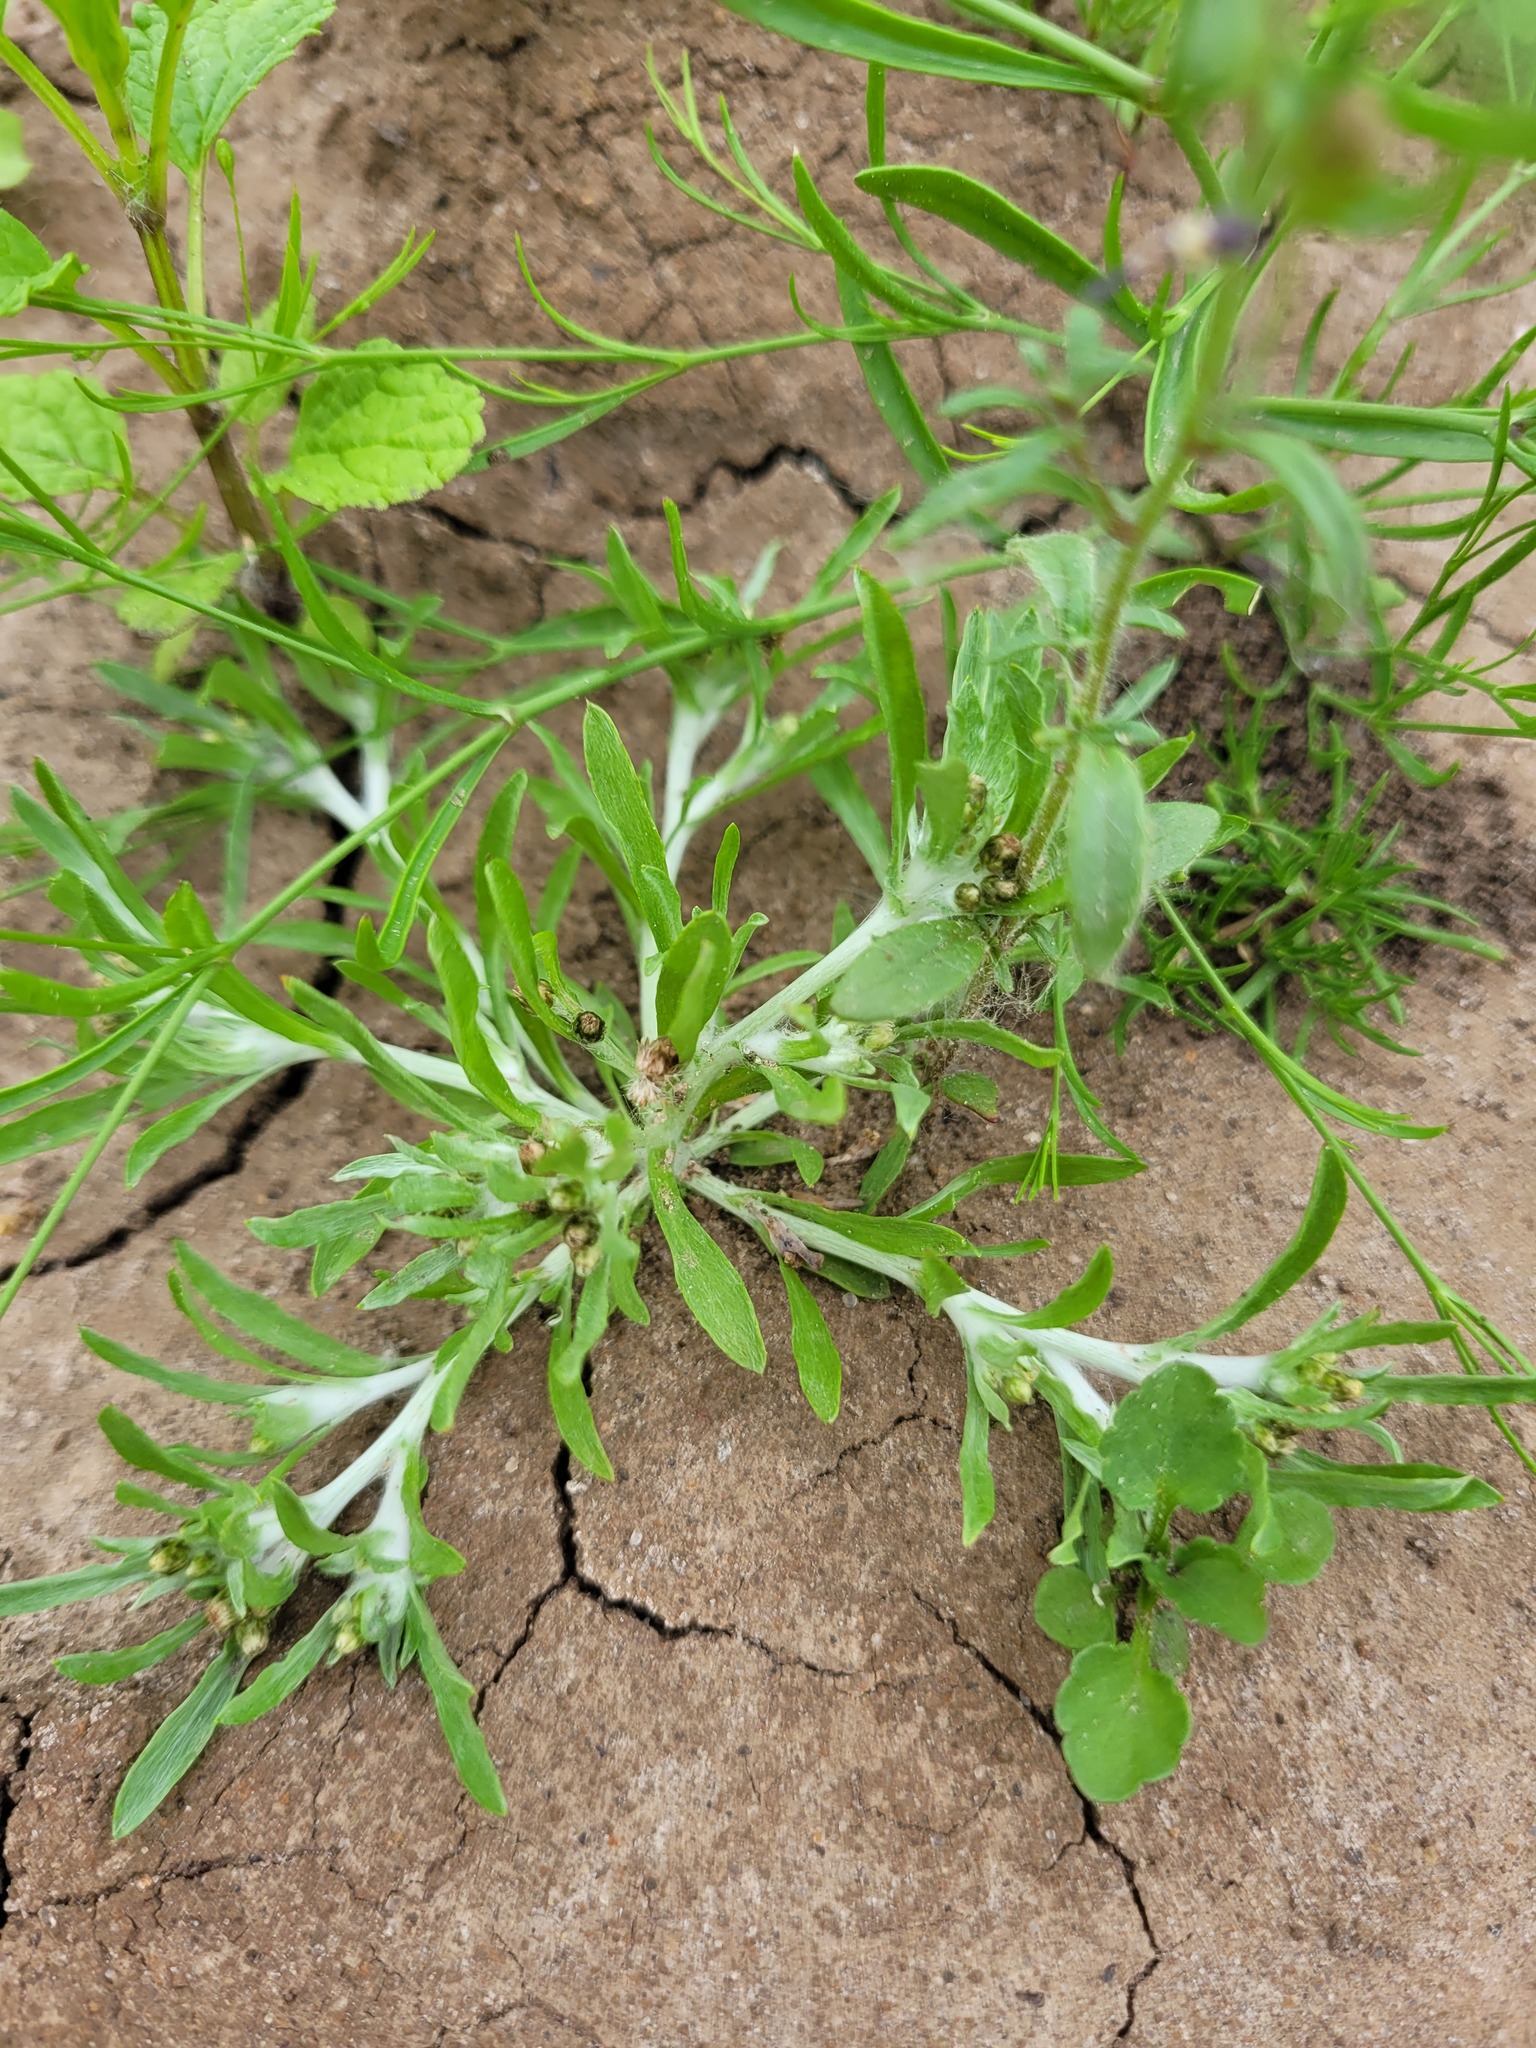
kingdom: Plantae
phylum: Tracheophyta
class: Magnoliopsida
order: Asterales
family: Asteraceae
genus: Gnaphalium
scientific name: Gnaphalium rossicum
